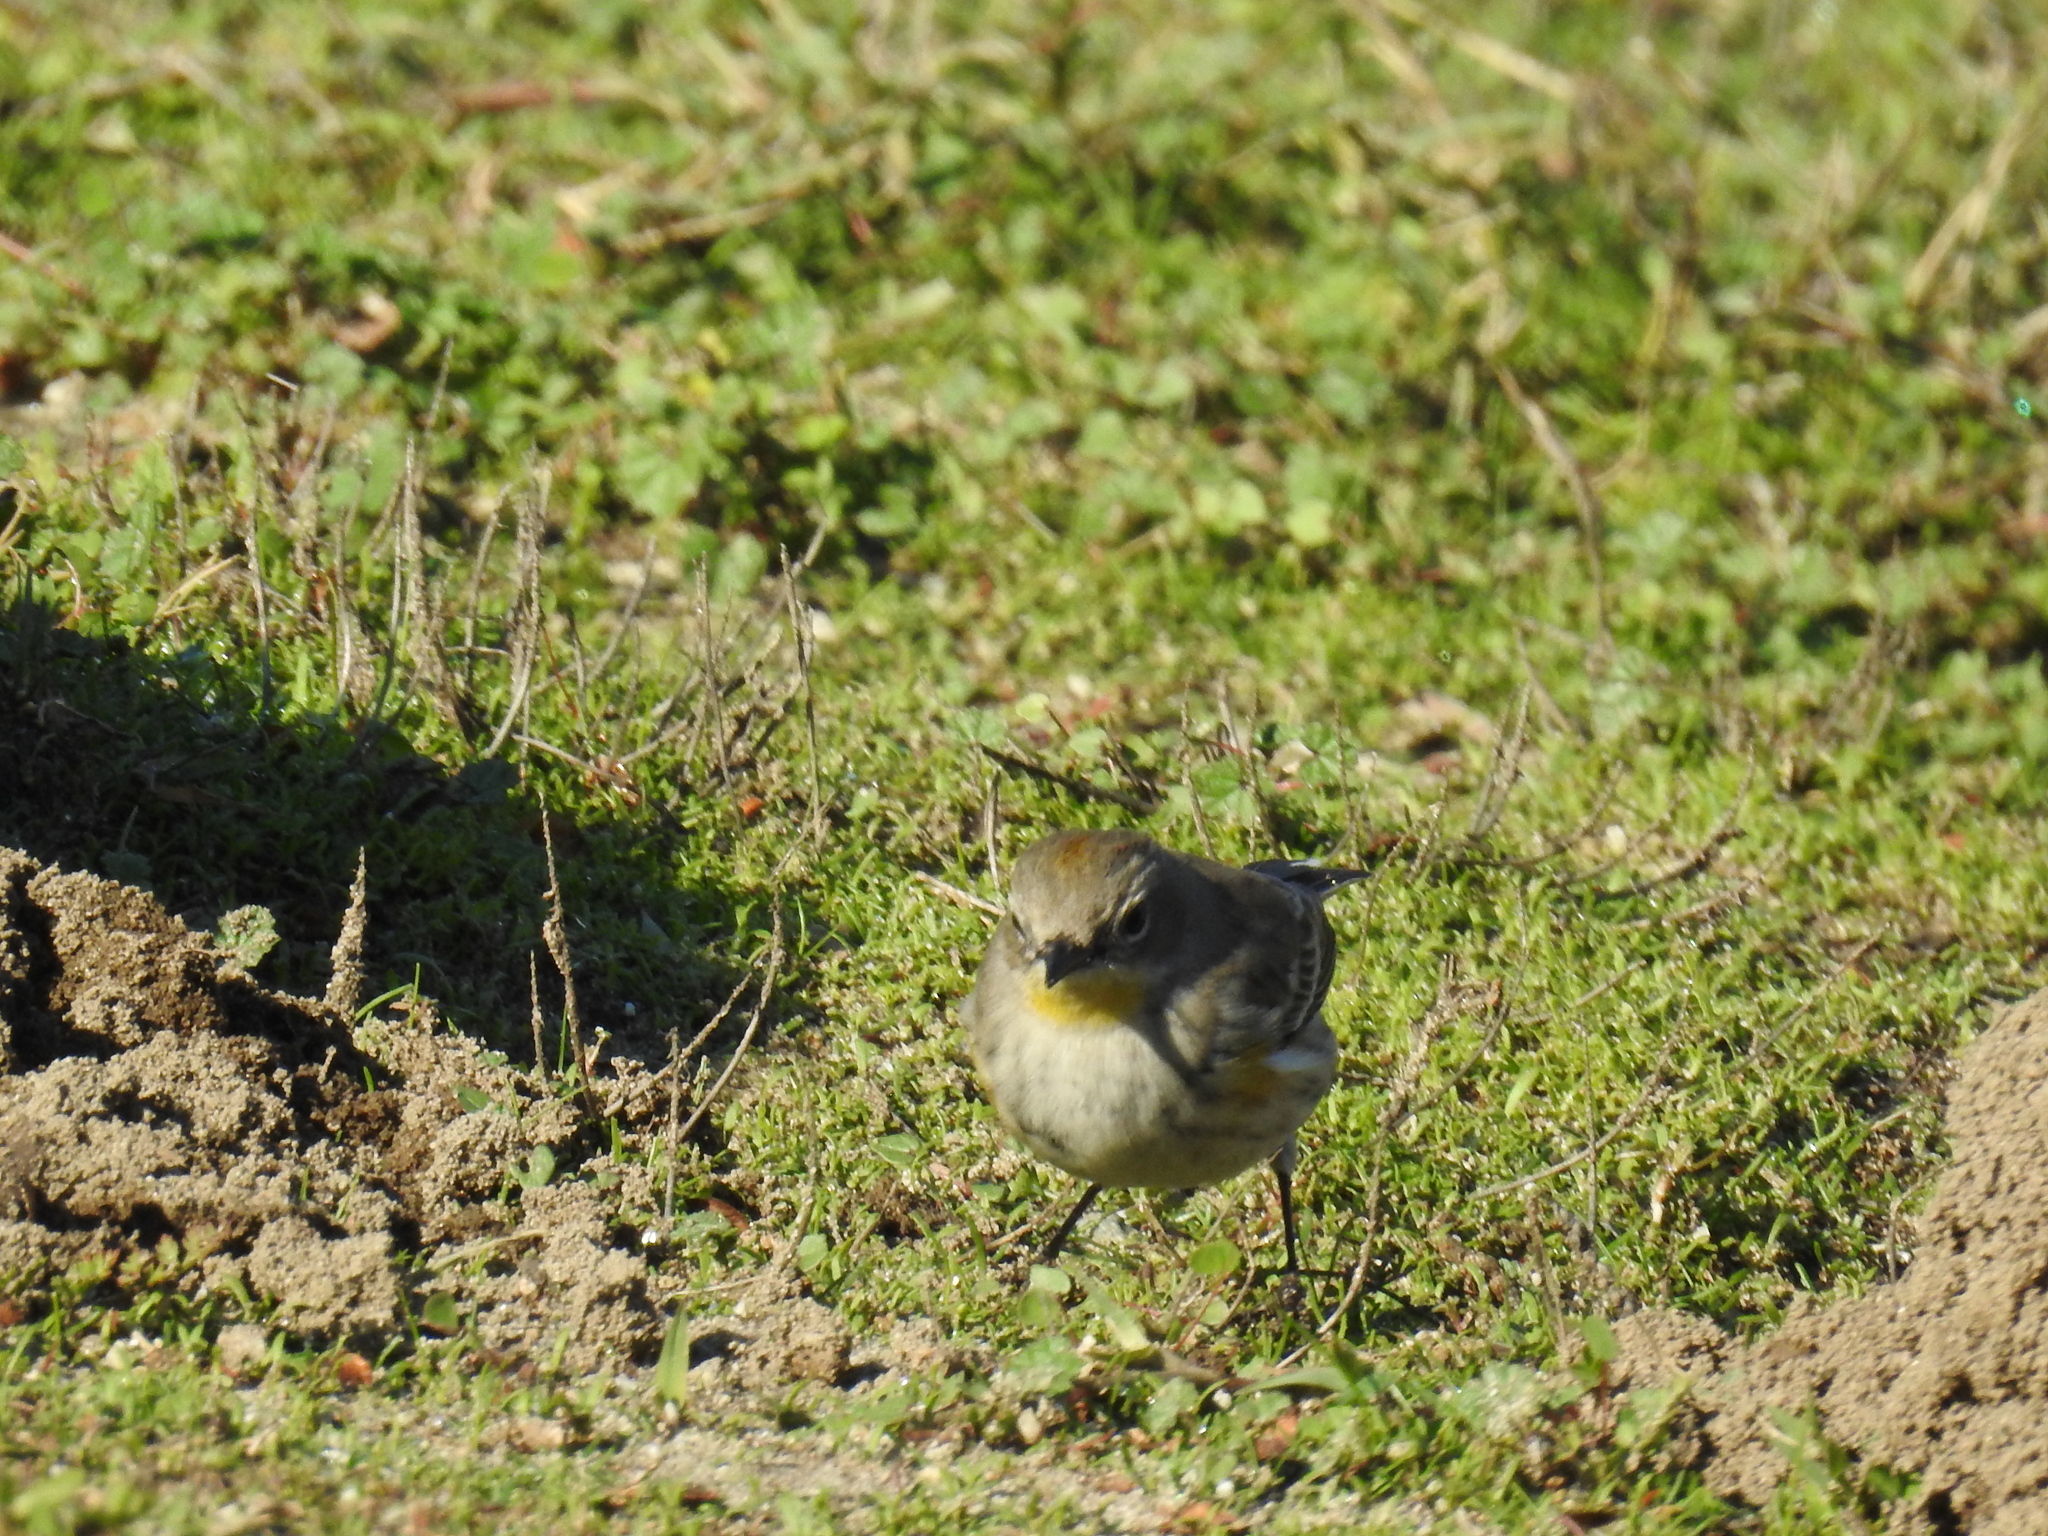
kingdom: Animalia
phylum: Chordata
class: Aves
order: Passeriformes
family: Parulidae
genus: Setophaga
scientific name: Setophaga coronata
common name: Myrtle warbler
